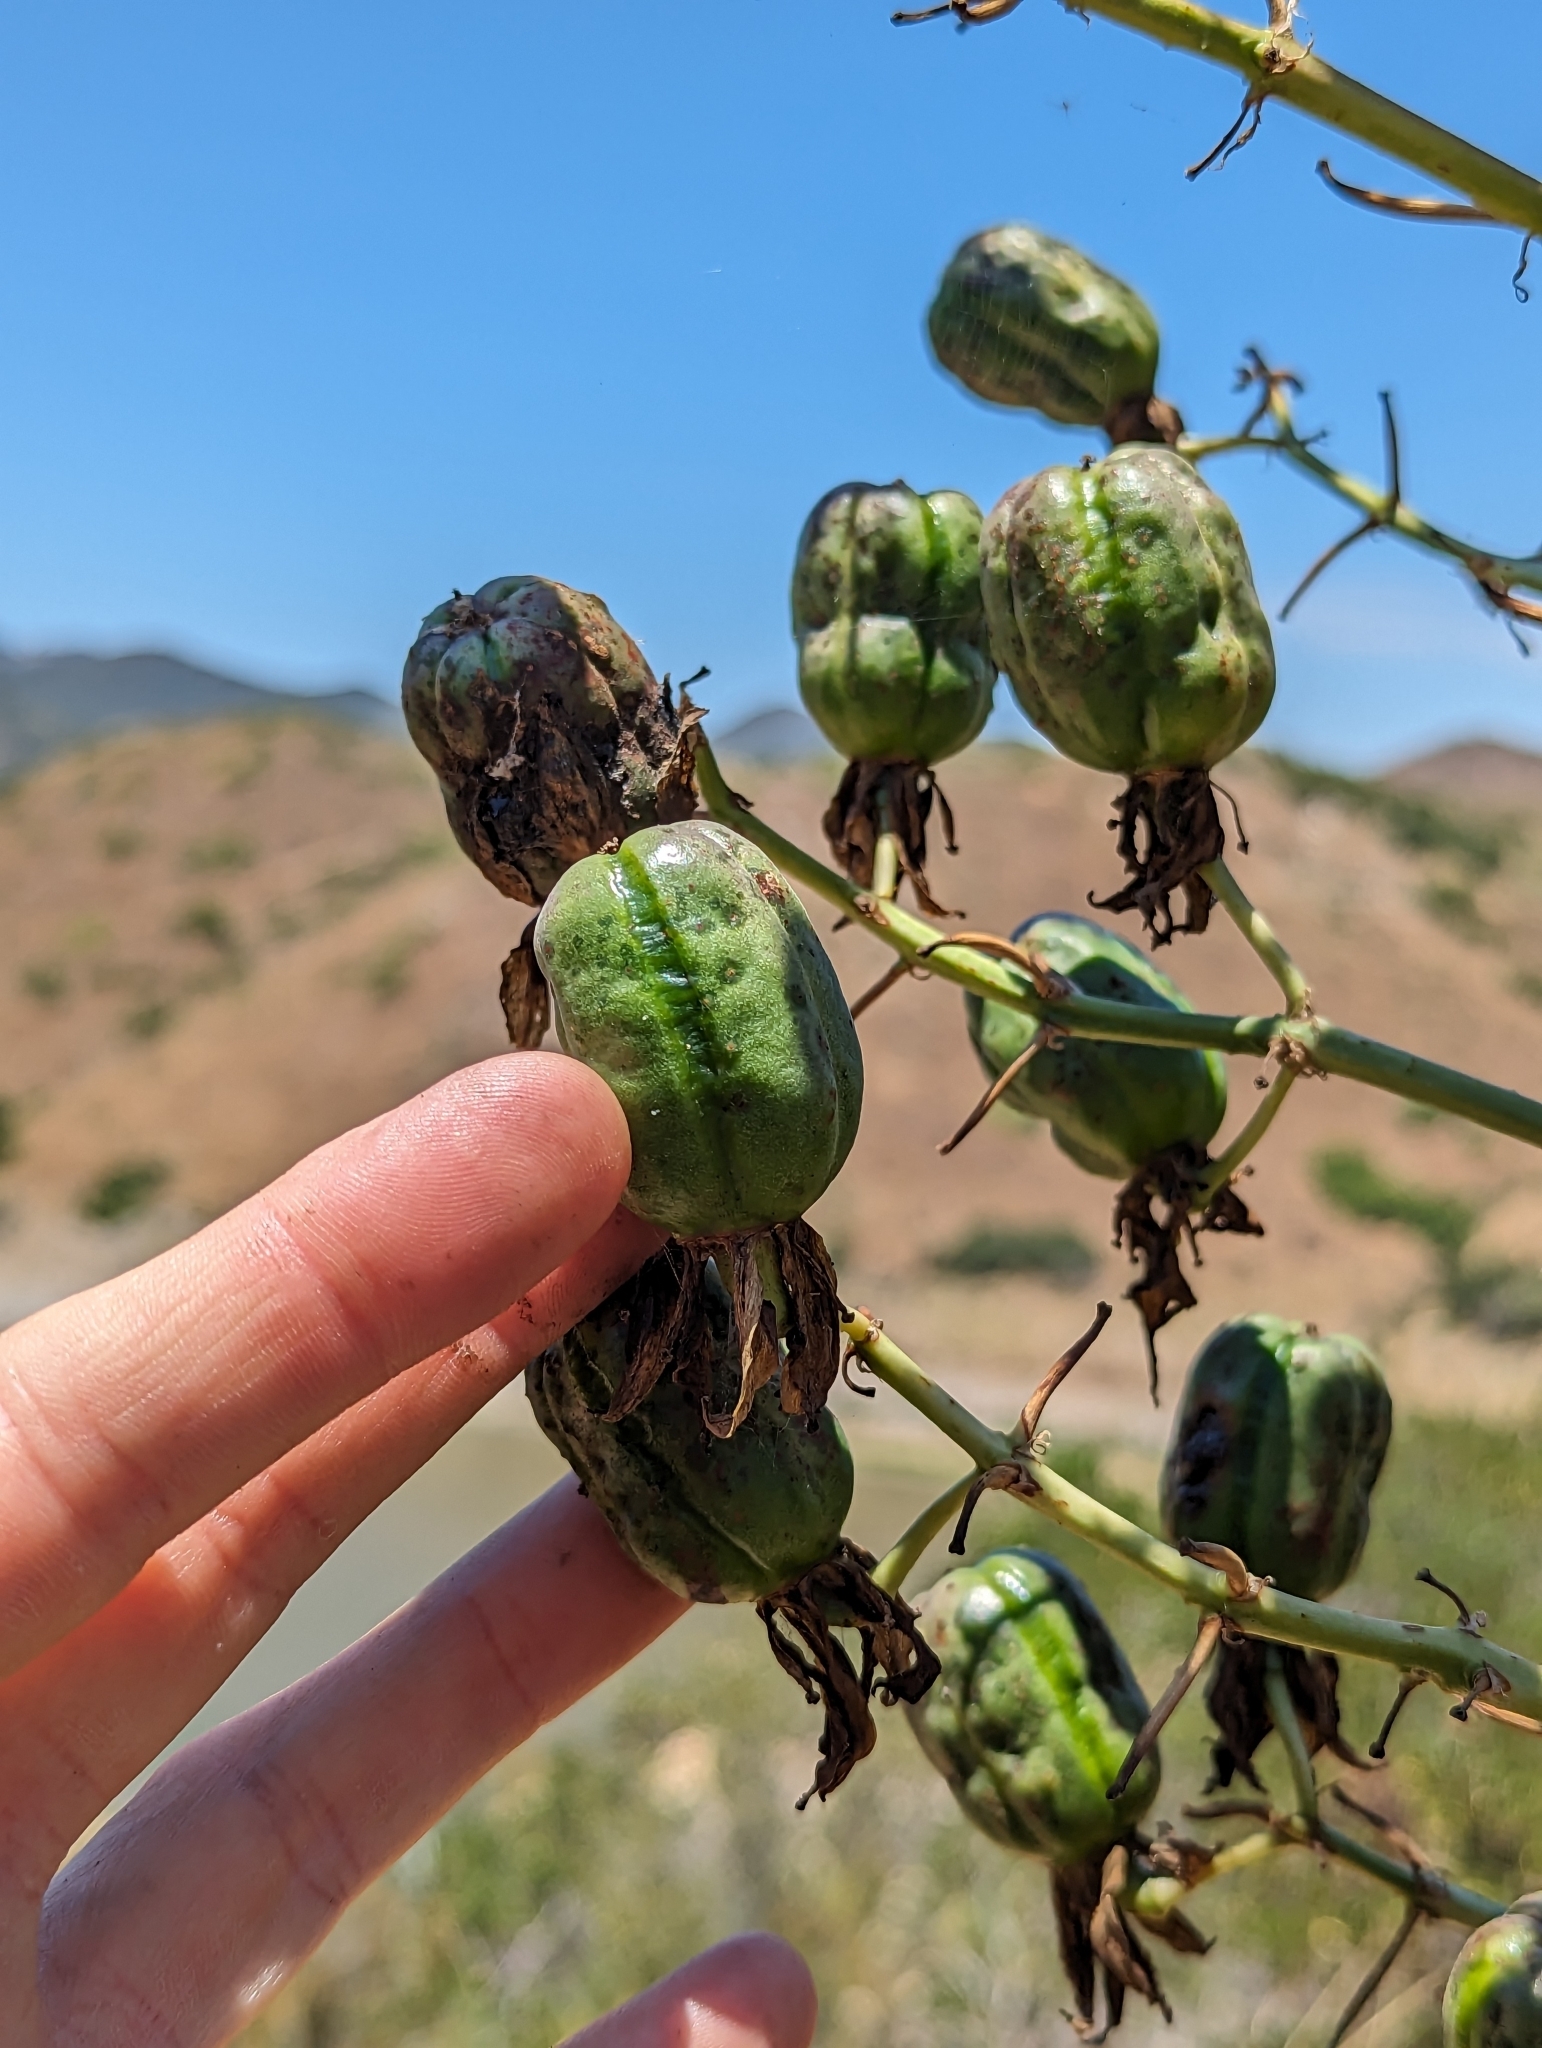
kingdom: Plantae
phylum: Tracheophyta
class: Liliopsida
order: Asparagales
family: Asparagaceae
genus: Hesperoyucca
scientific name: Hesperoyucca whipplei
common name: Our lord's-candle
